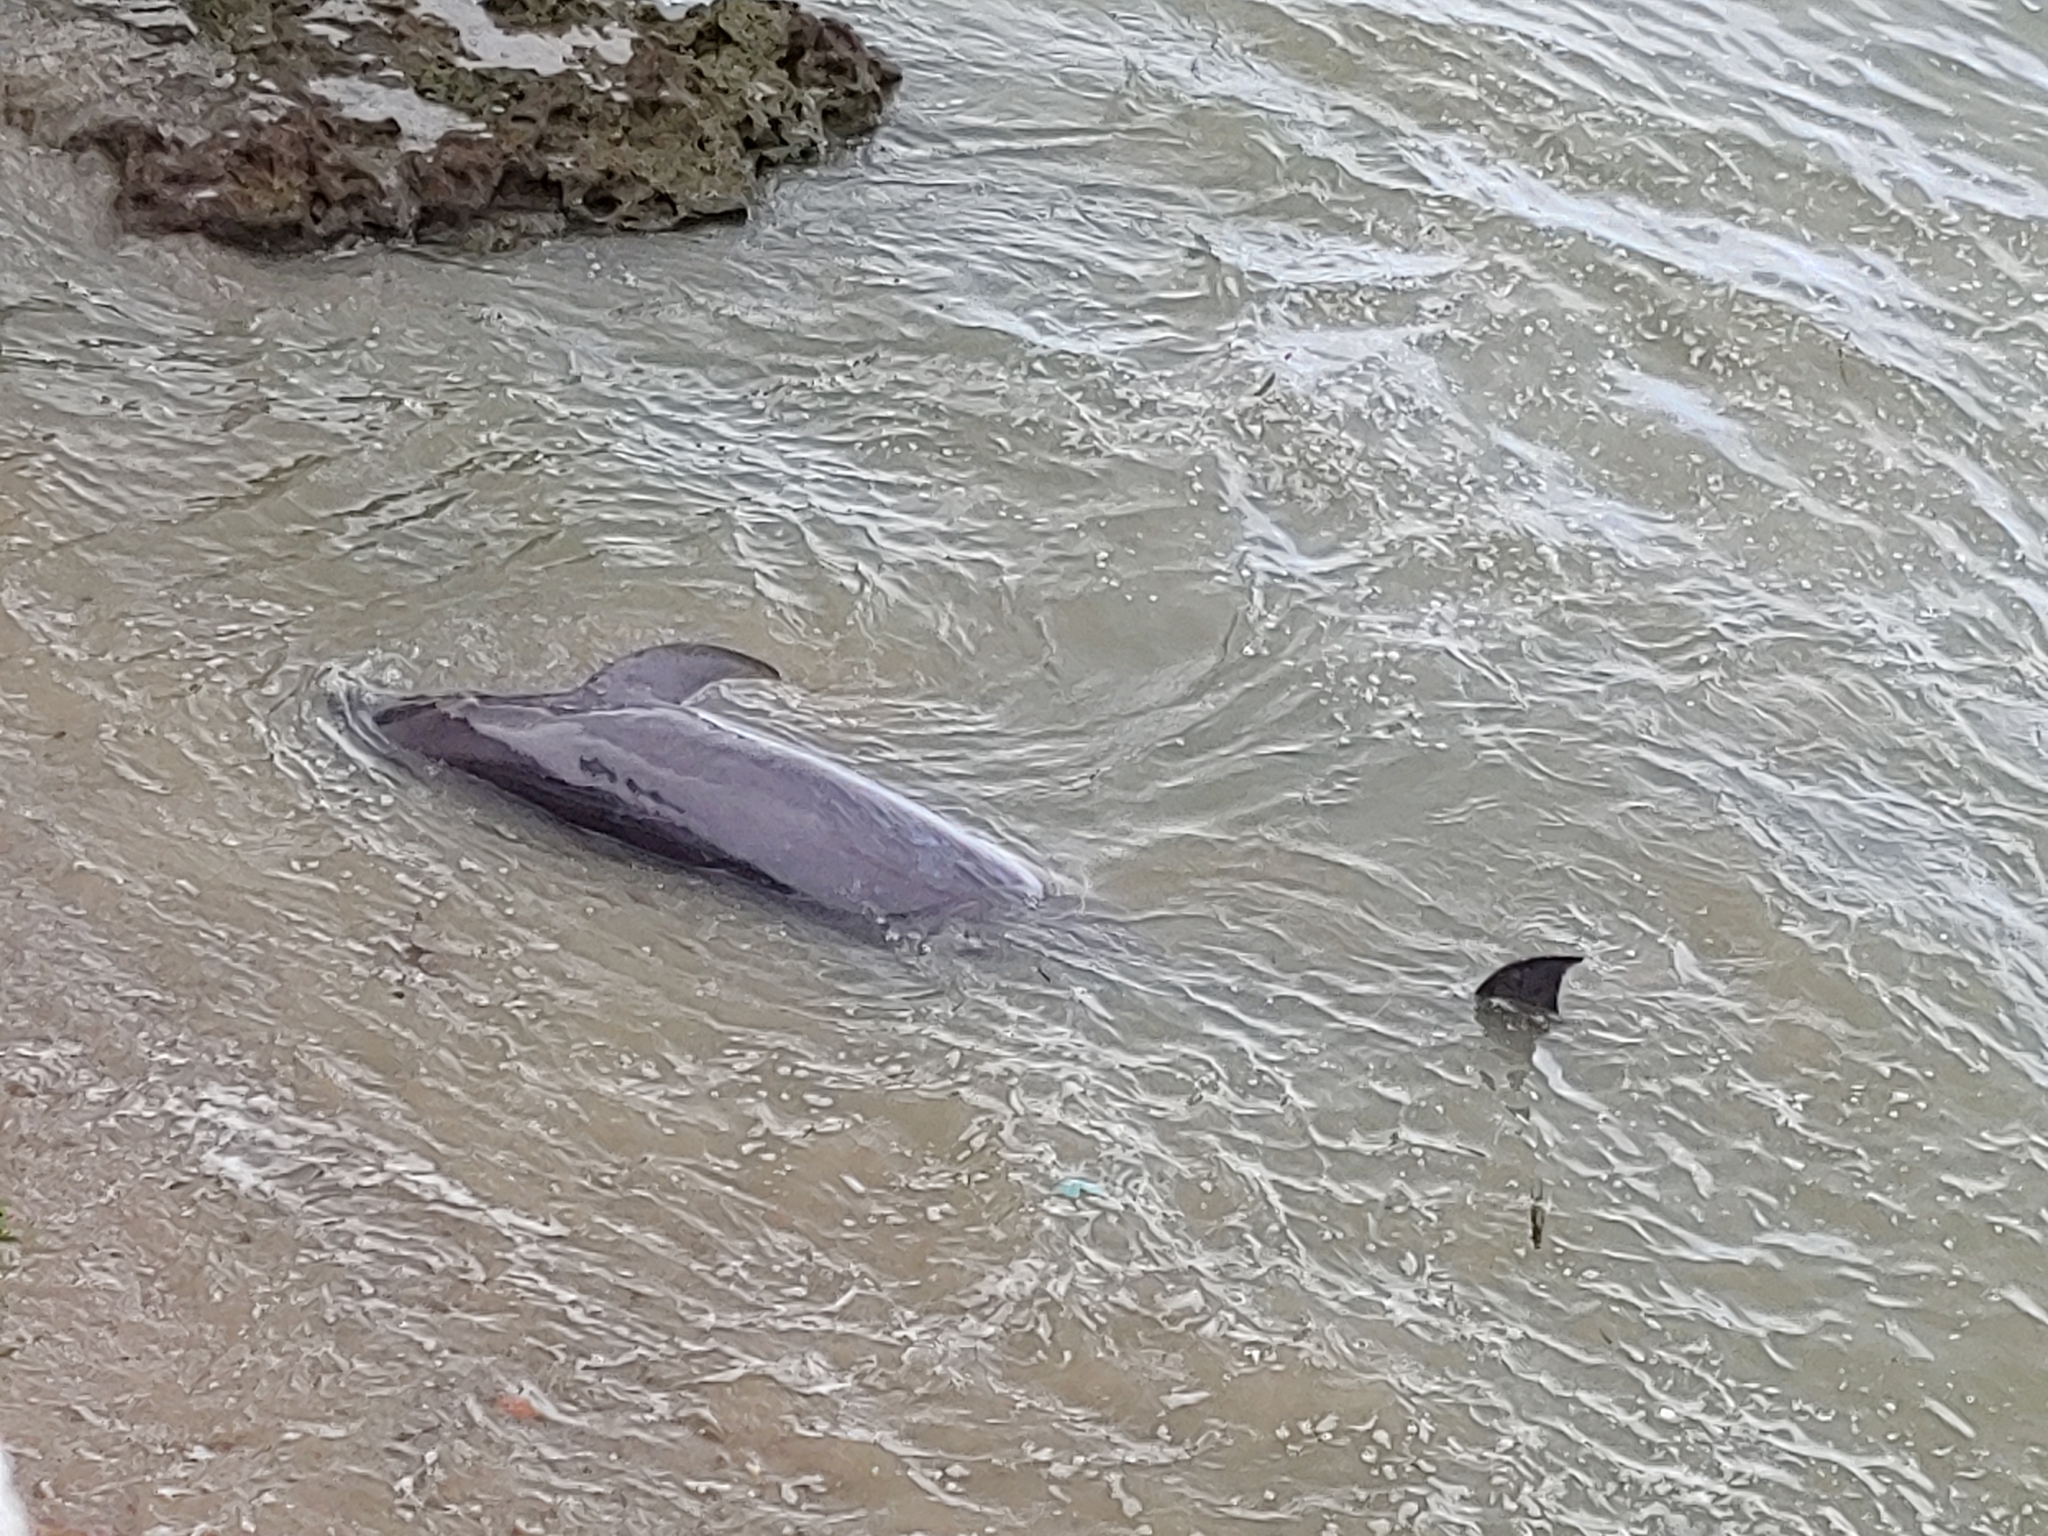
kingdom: Animalia
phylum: Chordata
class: Mammalia
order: Cetacea
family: Delphinidae
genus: Tursiops
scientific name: Tursiops truncatus
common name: Bottlenose dolphin
